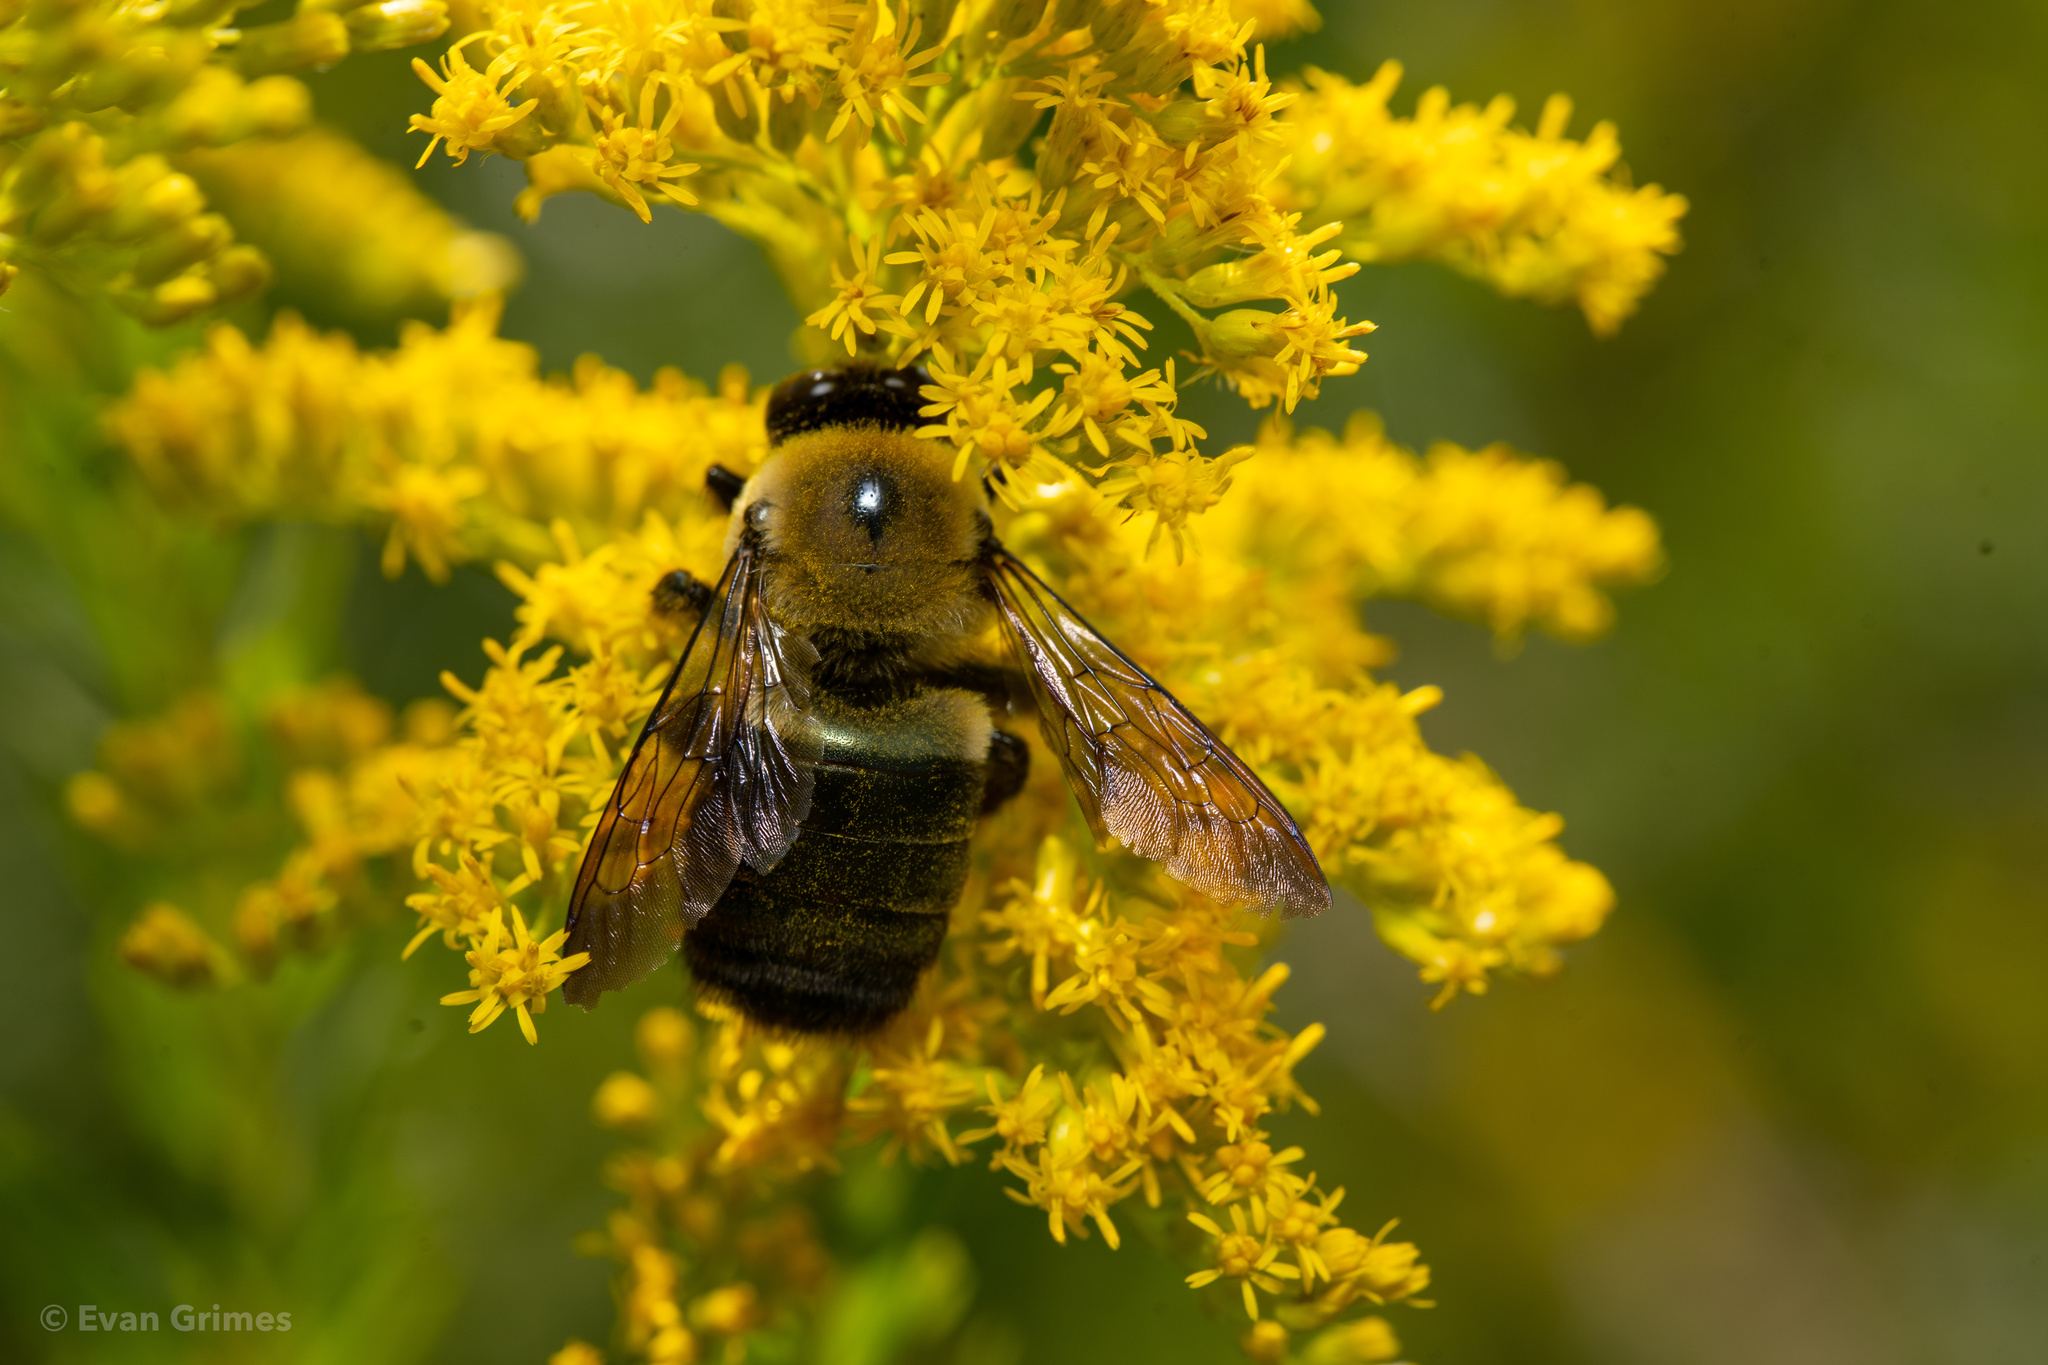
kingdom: Animalia
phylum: Arthropoda
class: Insecta
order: Hymenoptera
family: Apidae
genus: Xylocopa
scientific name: Xylocopa virginica
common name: Carpenter bee
